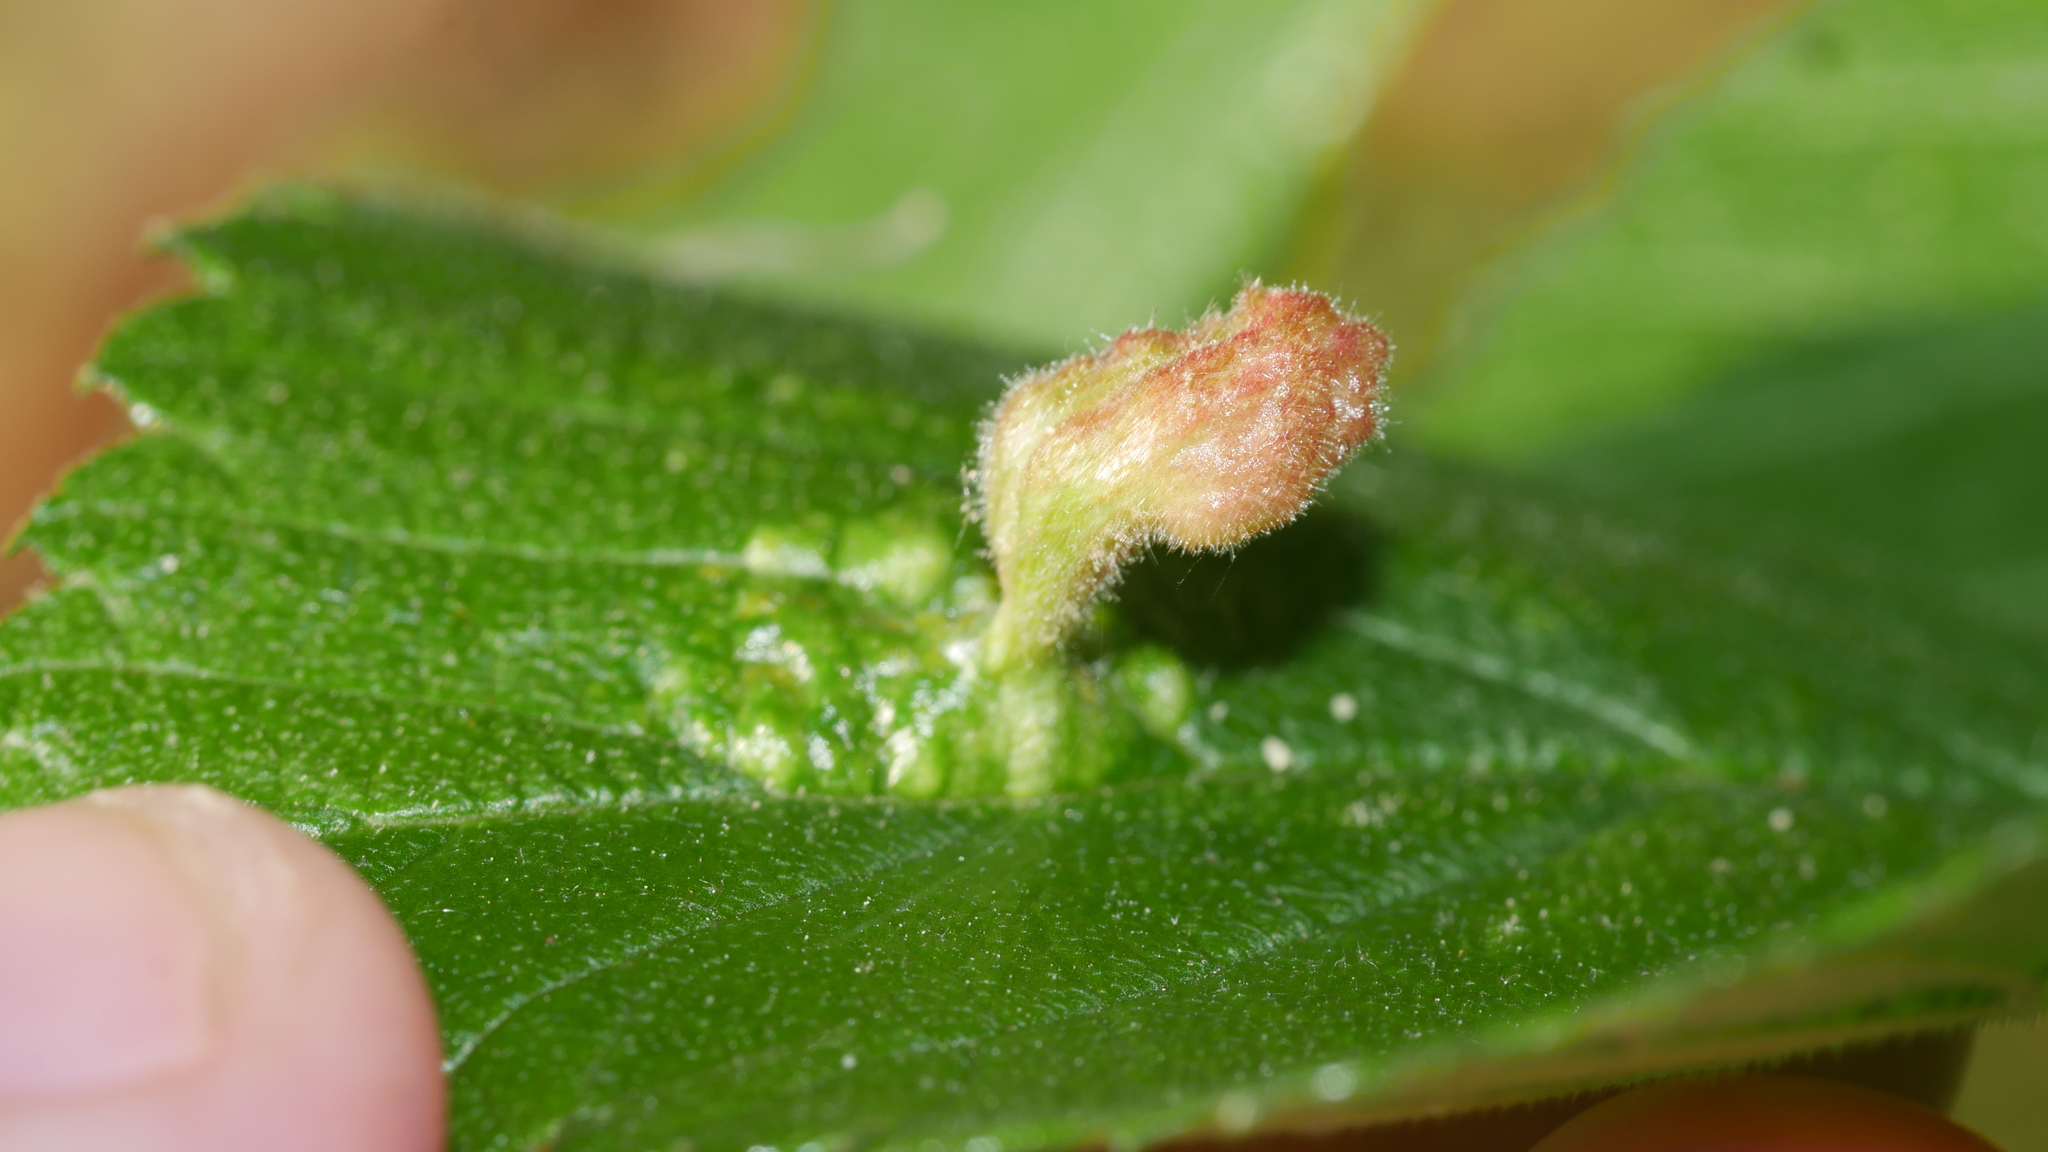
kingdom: Animalia
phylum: Arthropoda
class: Insecta
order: Hemiptera
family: Aphididae
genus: Tetraneura
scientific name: Tetraneura nigriabdominalis
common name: Aphid
